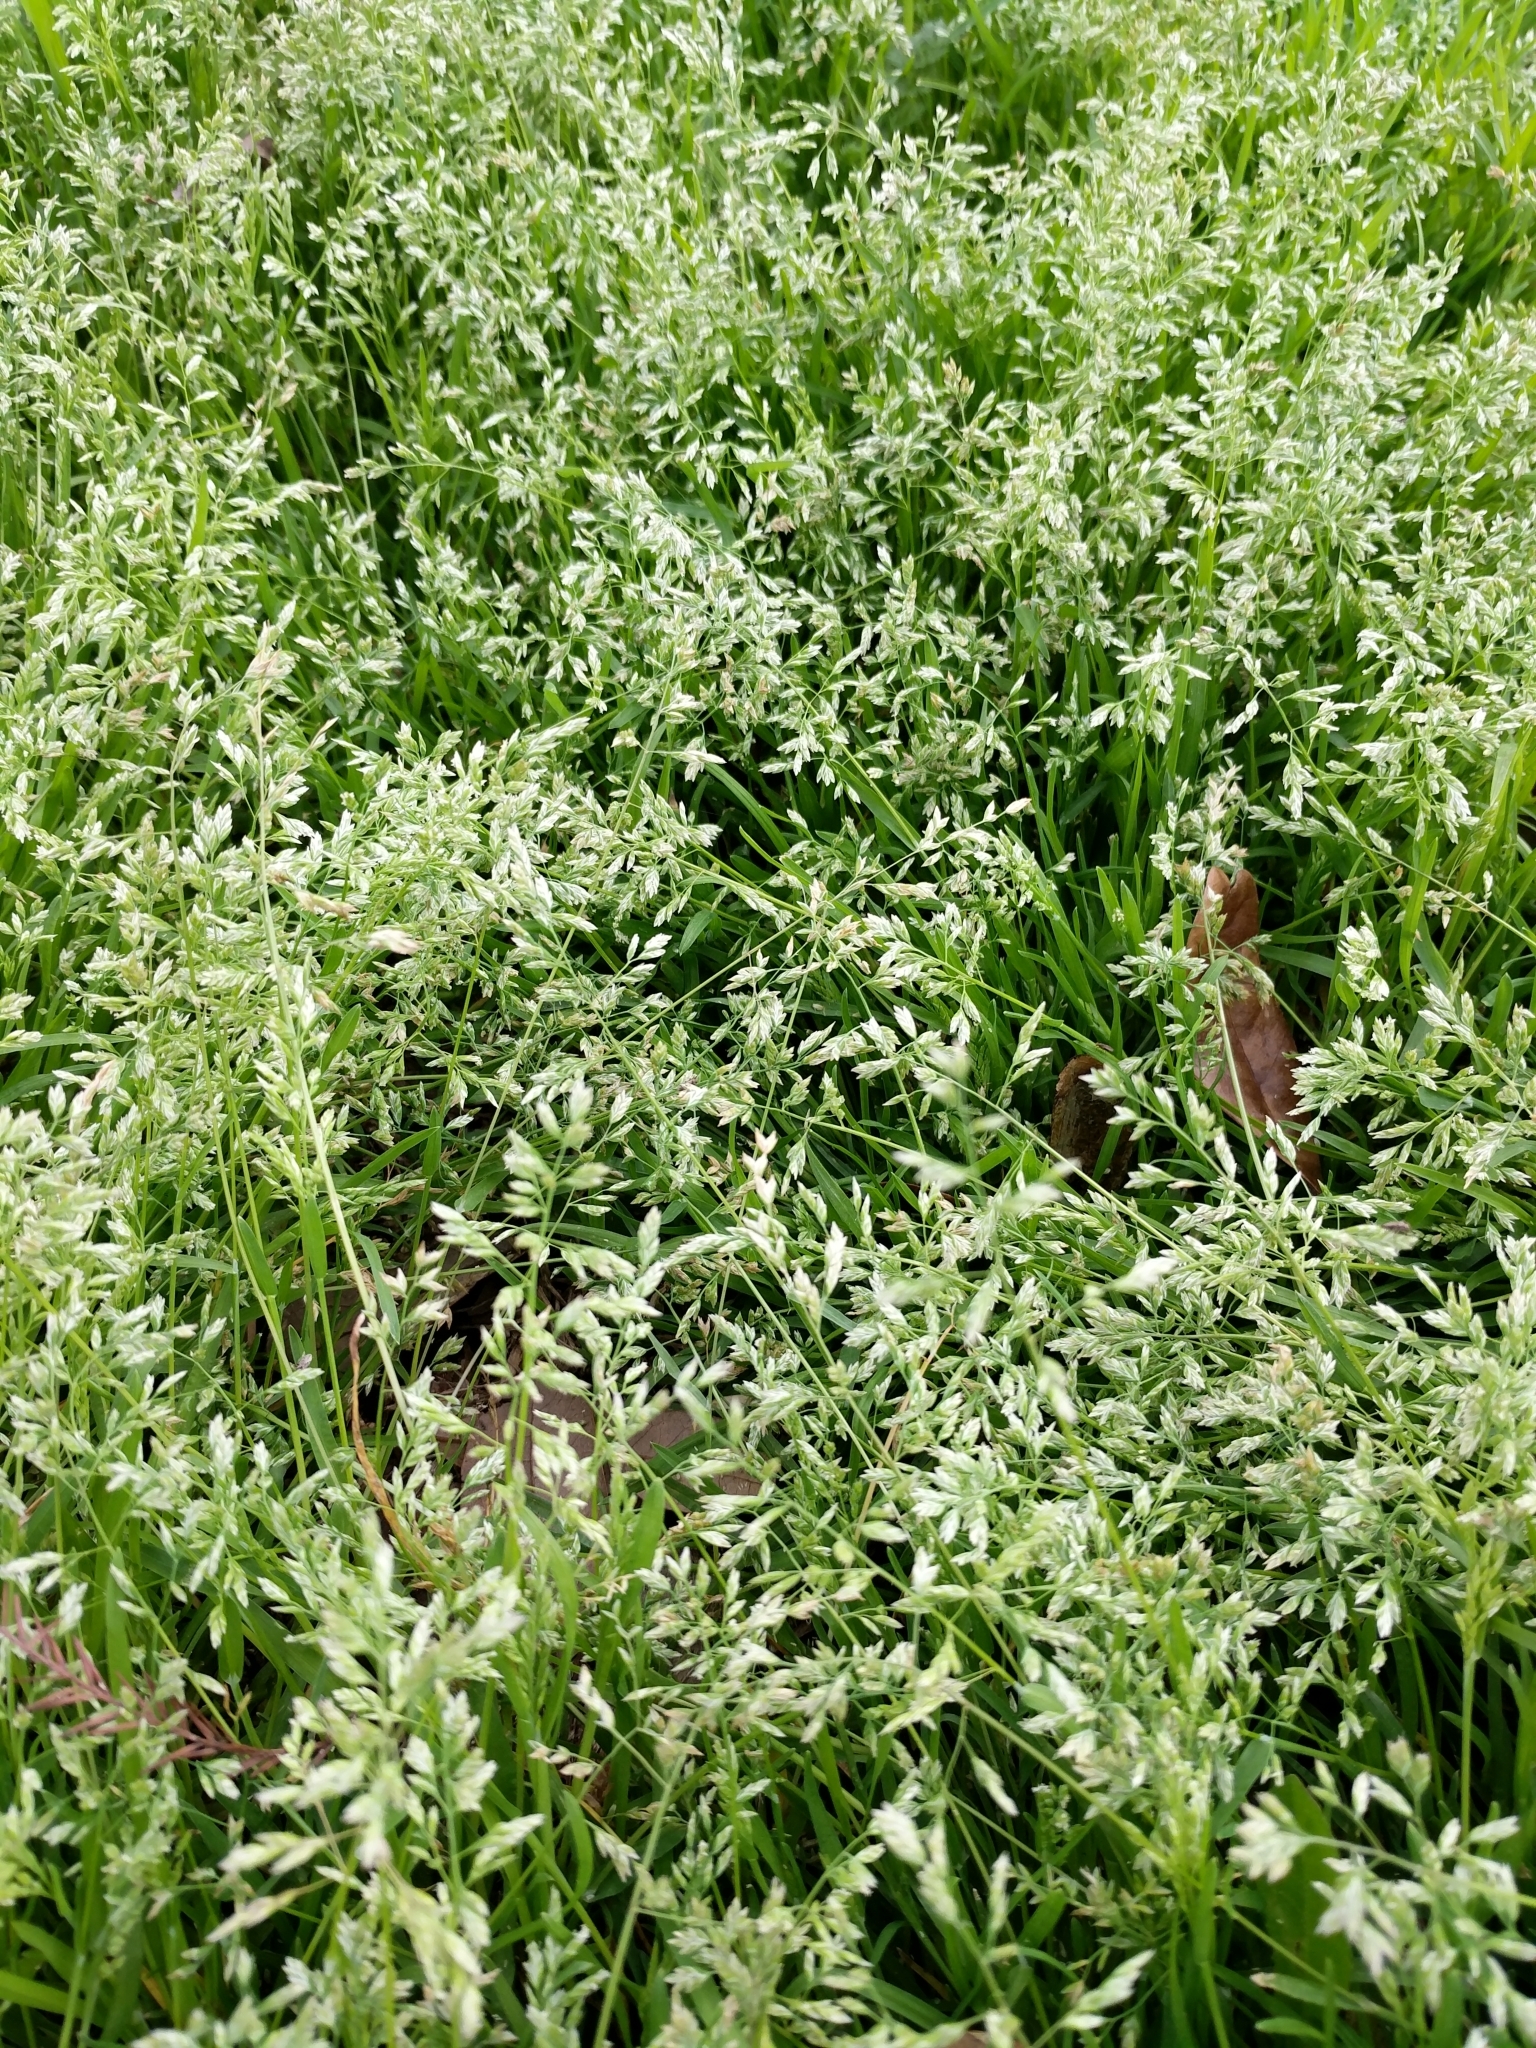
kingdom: Plantae
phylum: Tracheophyta
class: Liliopsida
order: Poales
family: Poaceae
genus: Poa
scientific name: Poa annua
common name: Annual bluegrass
